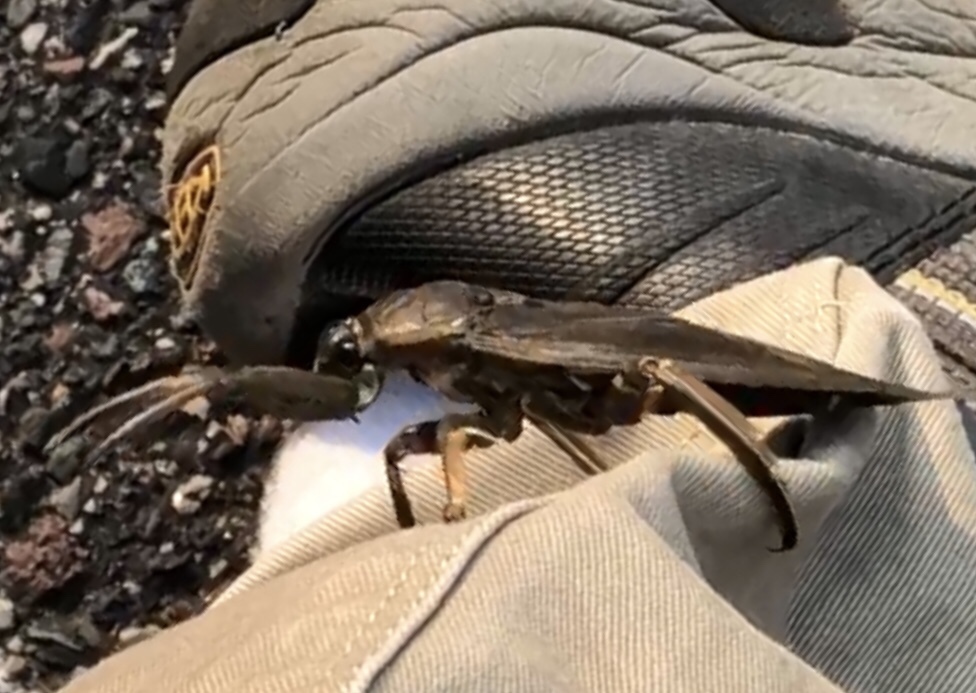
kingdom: Animalia
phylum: Arthropoda
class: Insecta
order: Hemiptera
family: Belostomatidae
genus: Lethocerus
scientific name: Lethocerus americanus
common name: Giant water bug
